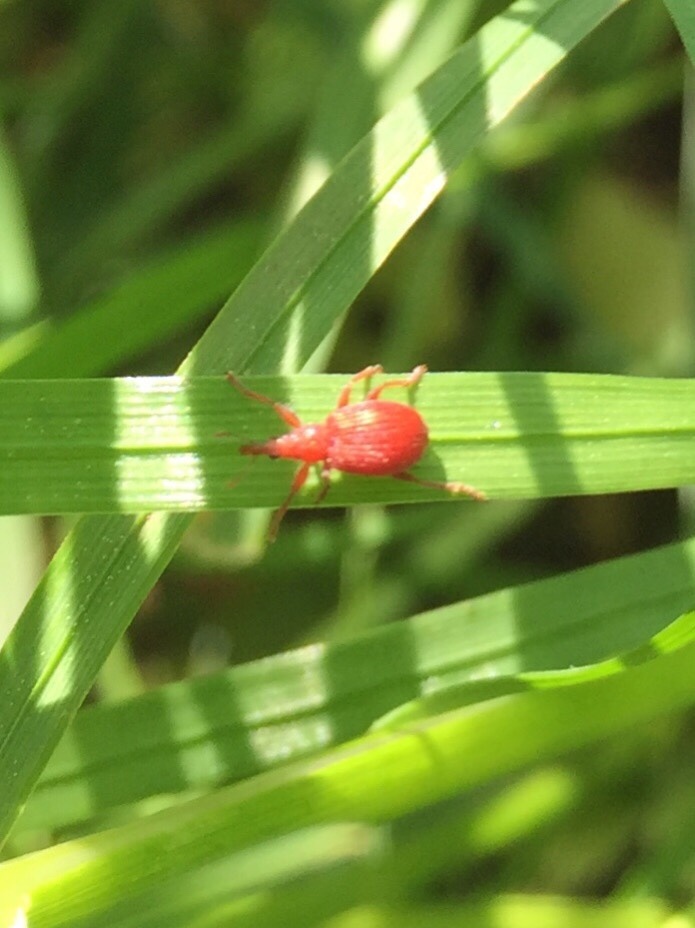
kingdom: Animalia
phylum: Arthropoda
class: Insecta
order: Coleoptera
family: Apionidae
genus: Apion
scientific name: Apion frumentarium
